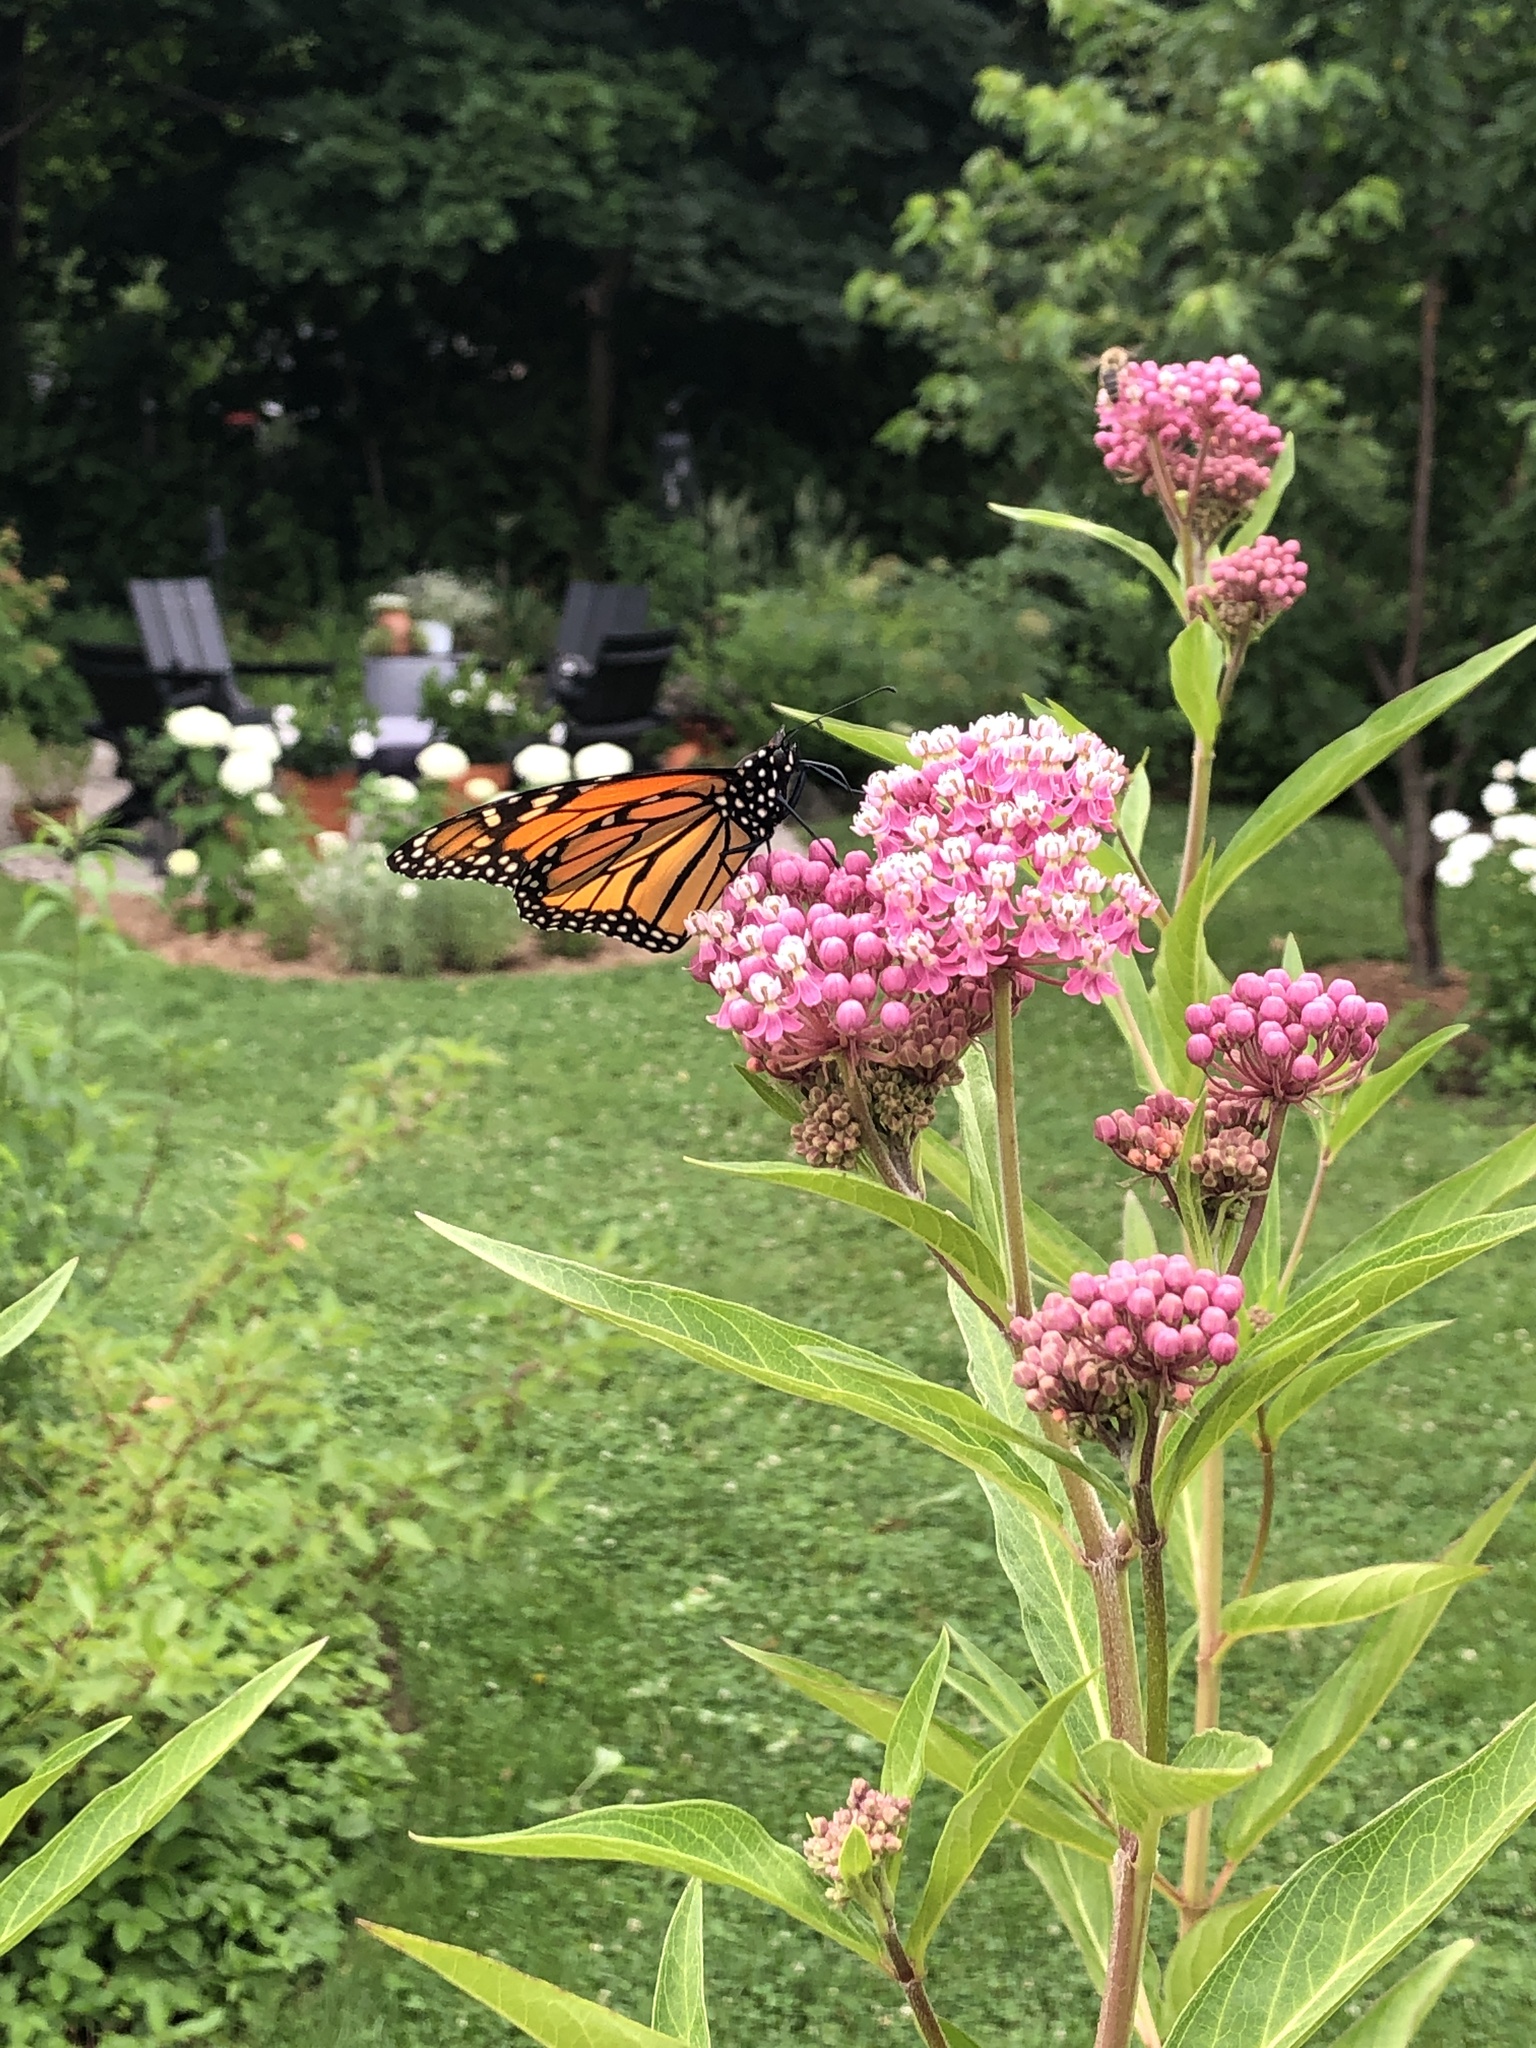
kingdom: Animalia
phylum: Arthropoda
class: Insecta
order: Lepidoptera
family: Nymphalidae
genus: Danaus
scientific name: Danaus plexippus
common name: Monarch
